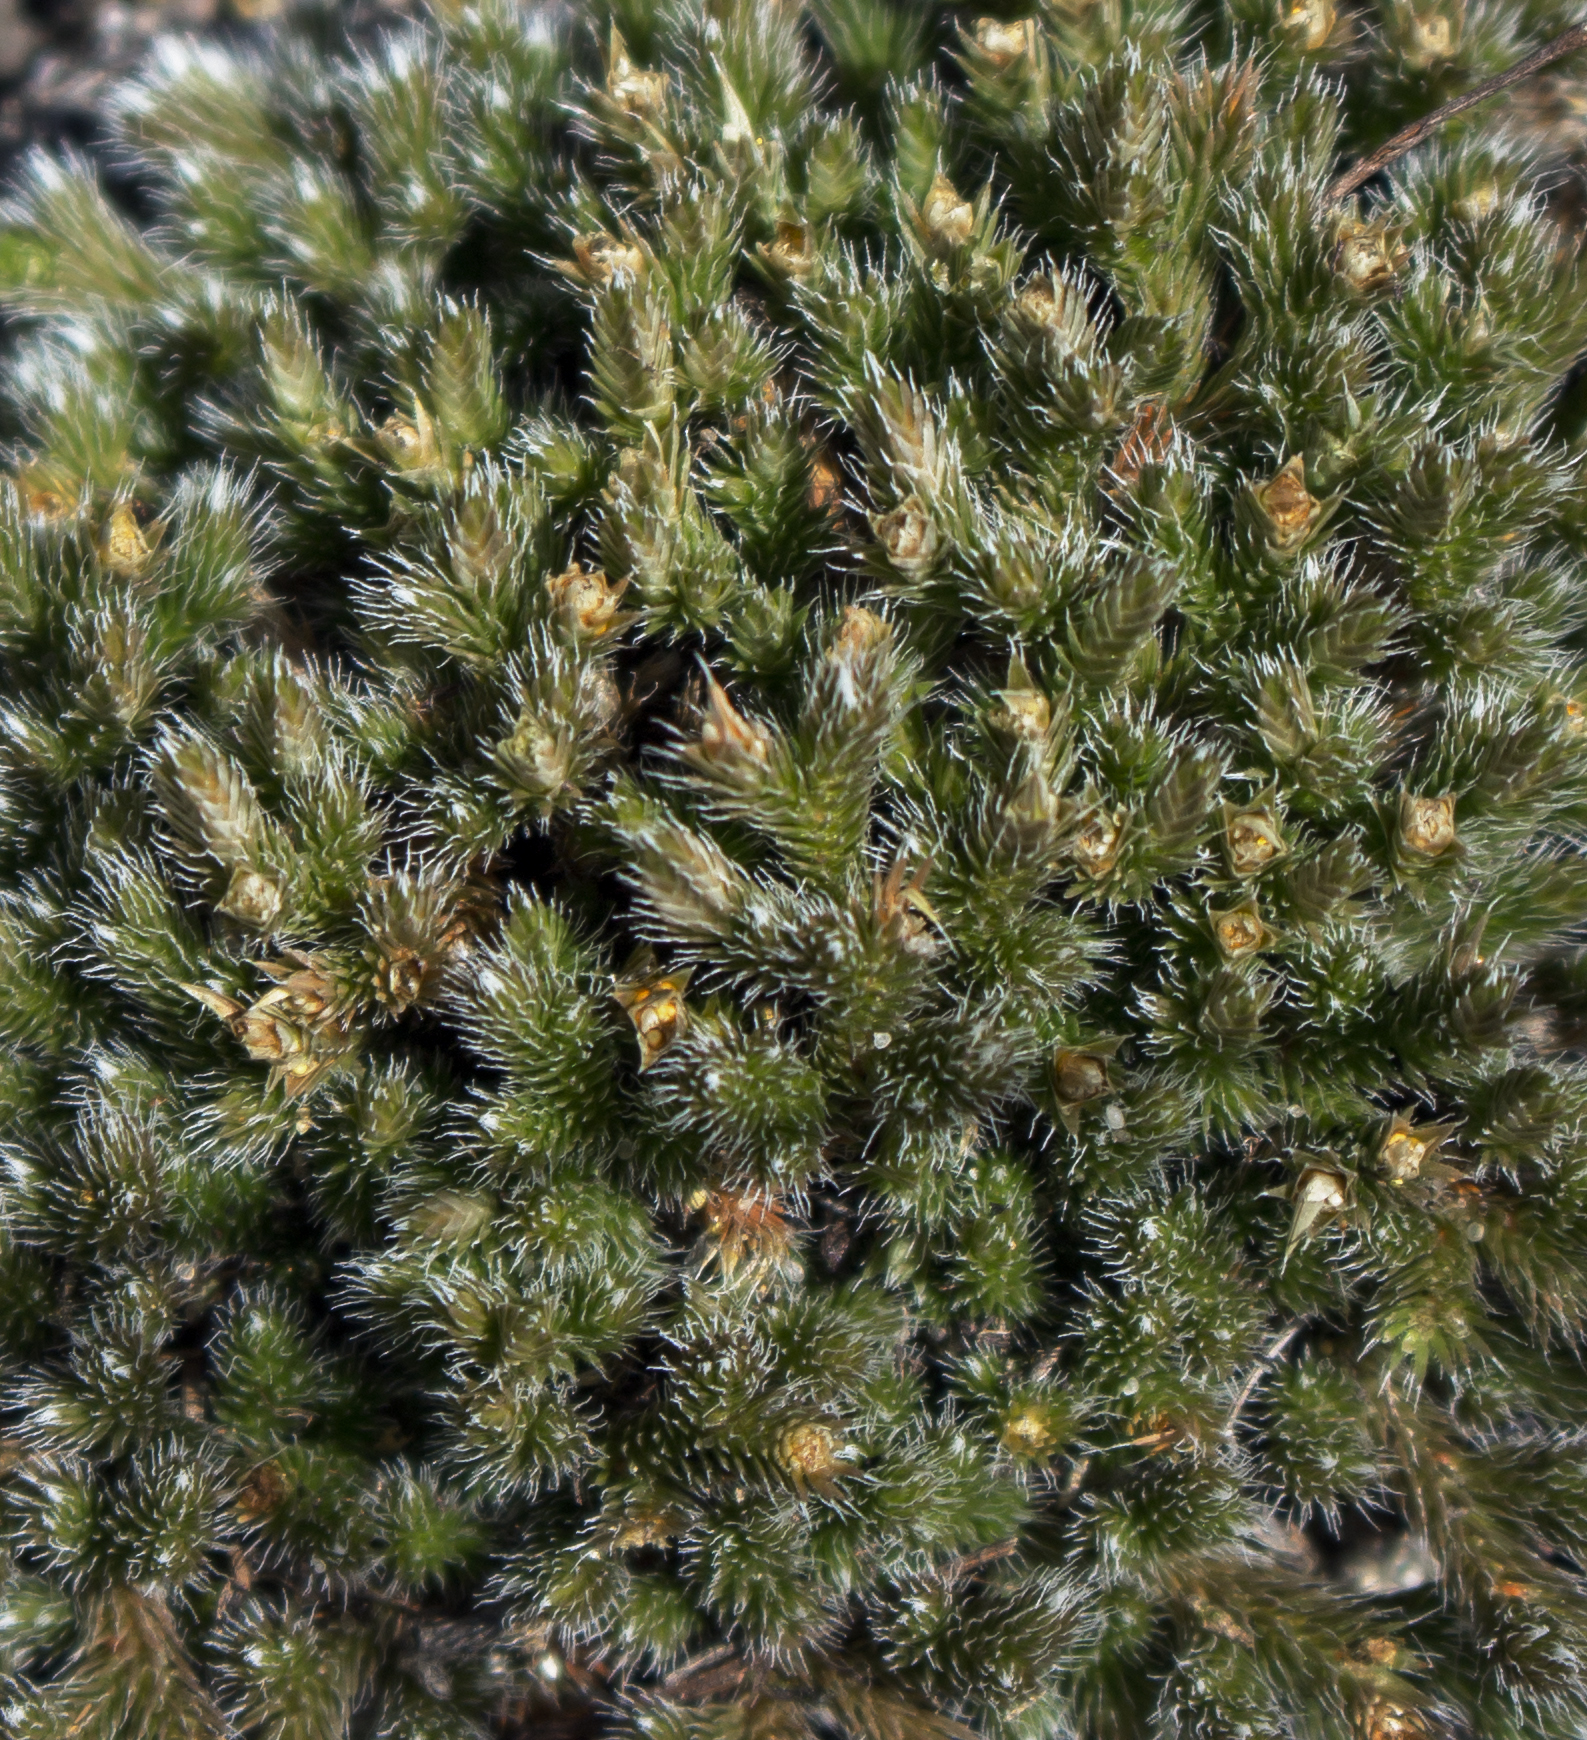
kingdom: Plantae
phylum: Tracheophyta
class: Lycopodiopsida
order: Selaginellales
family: Selaginellaceae
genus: Selaginella
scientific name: Selaginella rupestris
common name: Dwarf spikemoss
